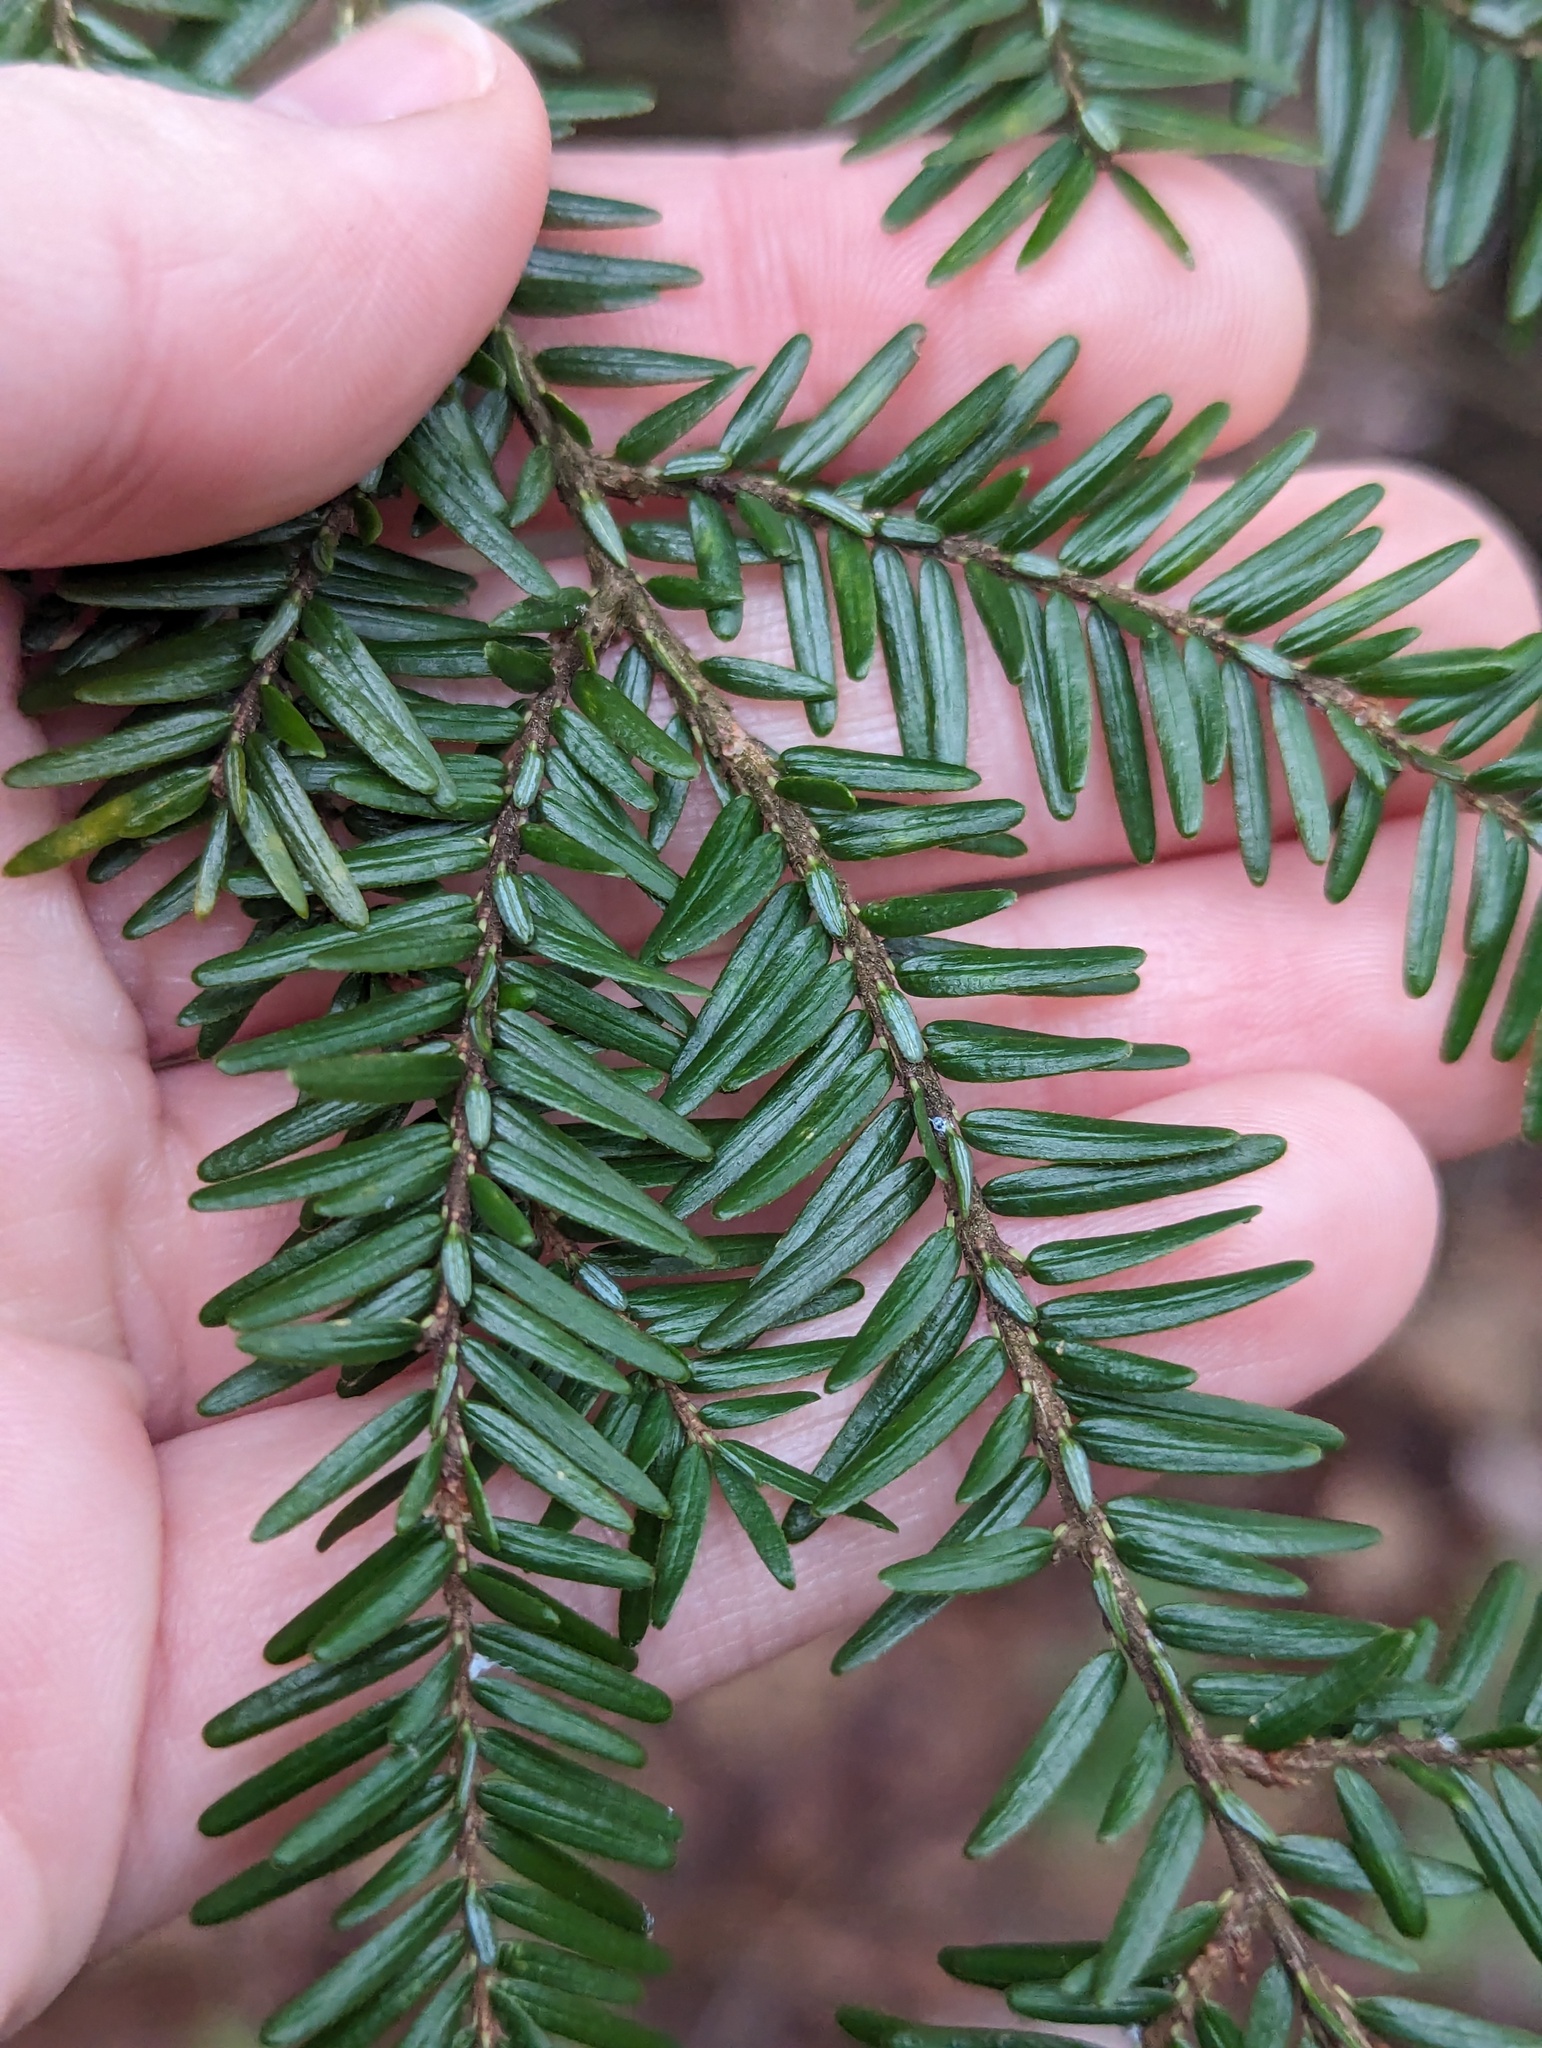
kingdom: Plantae
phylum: Tracheophyta
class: Pinopsida
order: Pinales
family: Pinaceae
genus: Tsuga
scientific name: Tsuga canadensis
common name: Eastern hemlock
